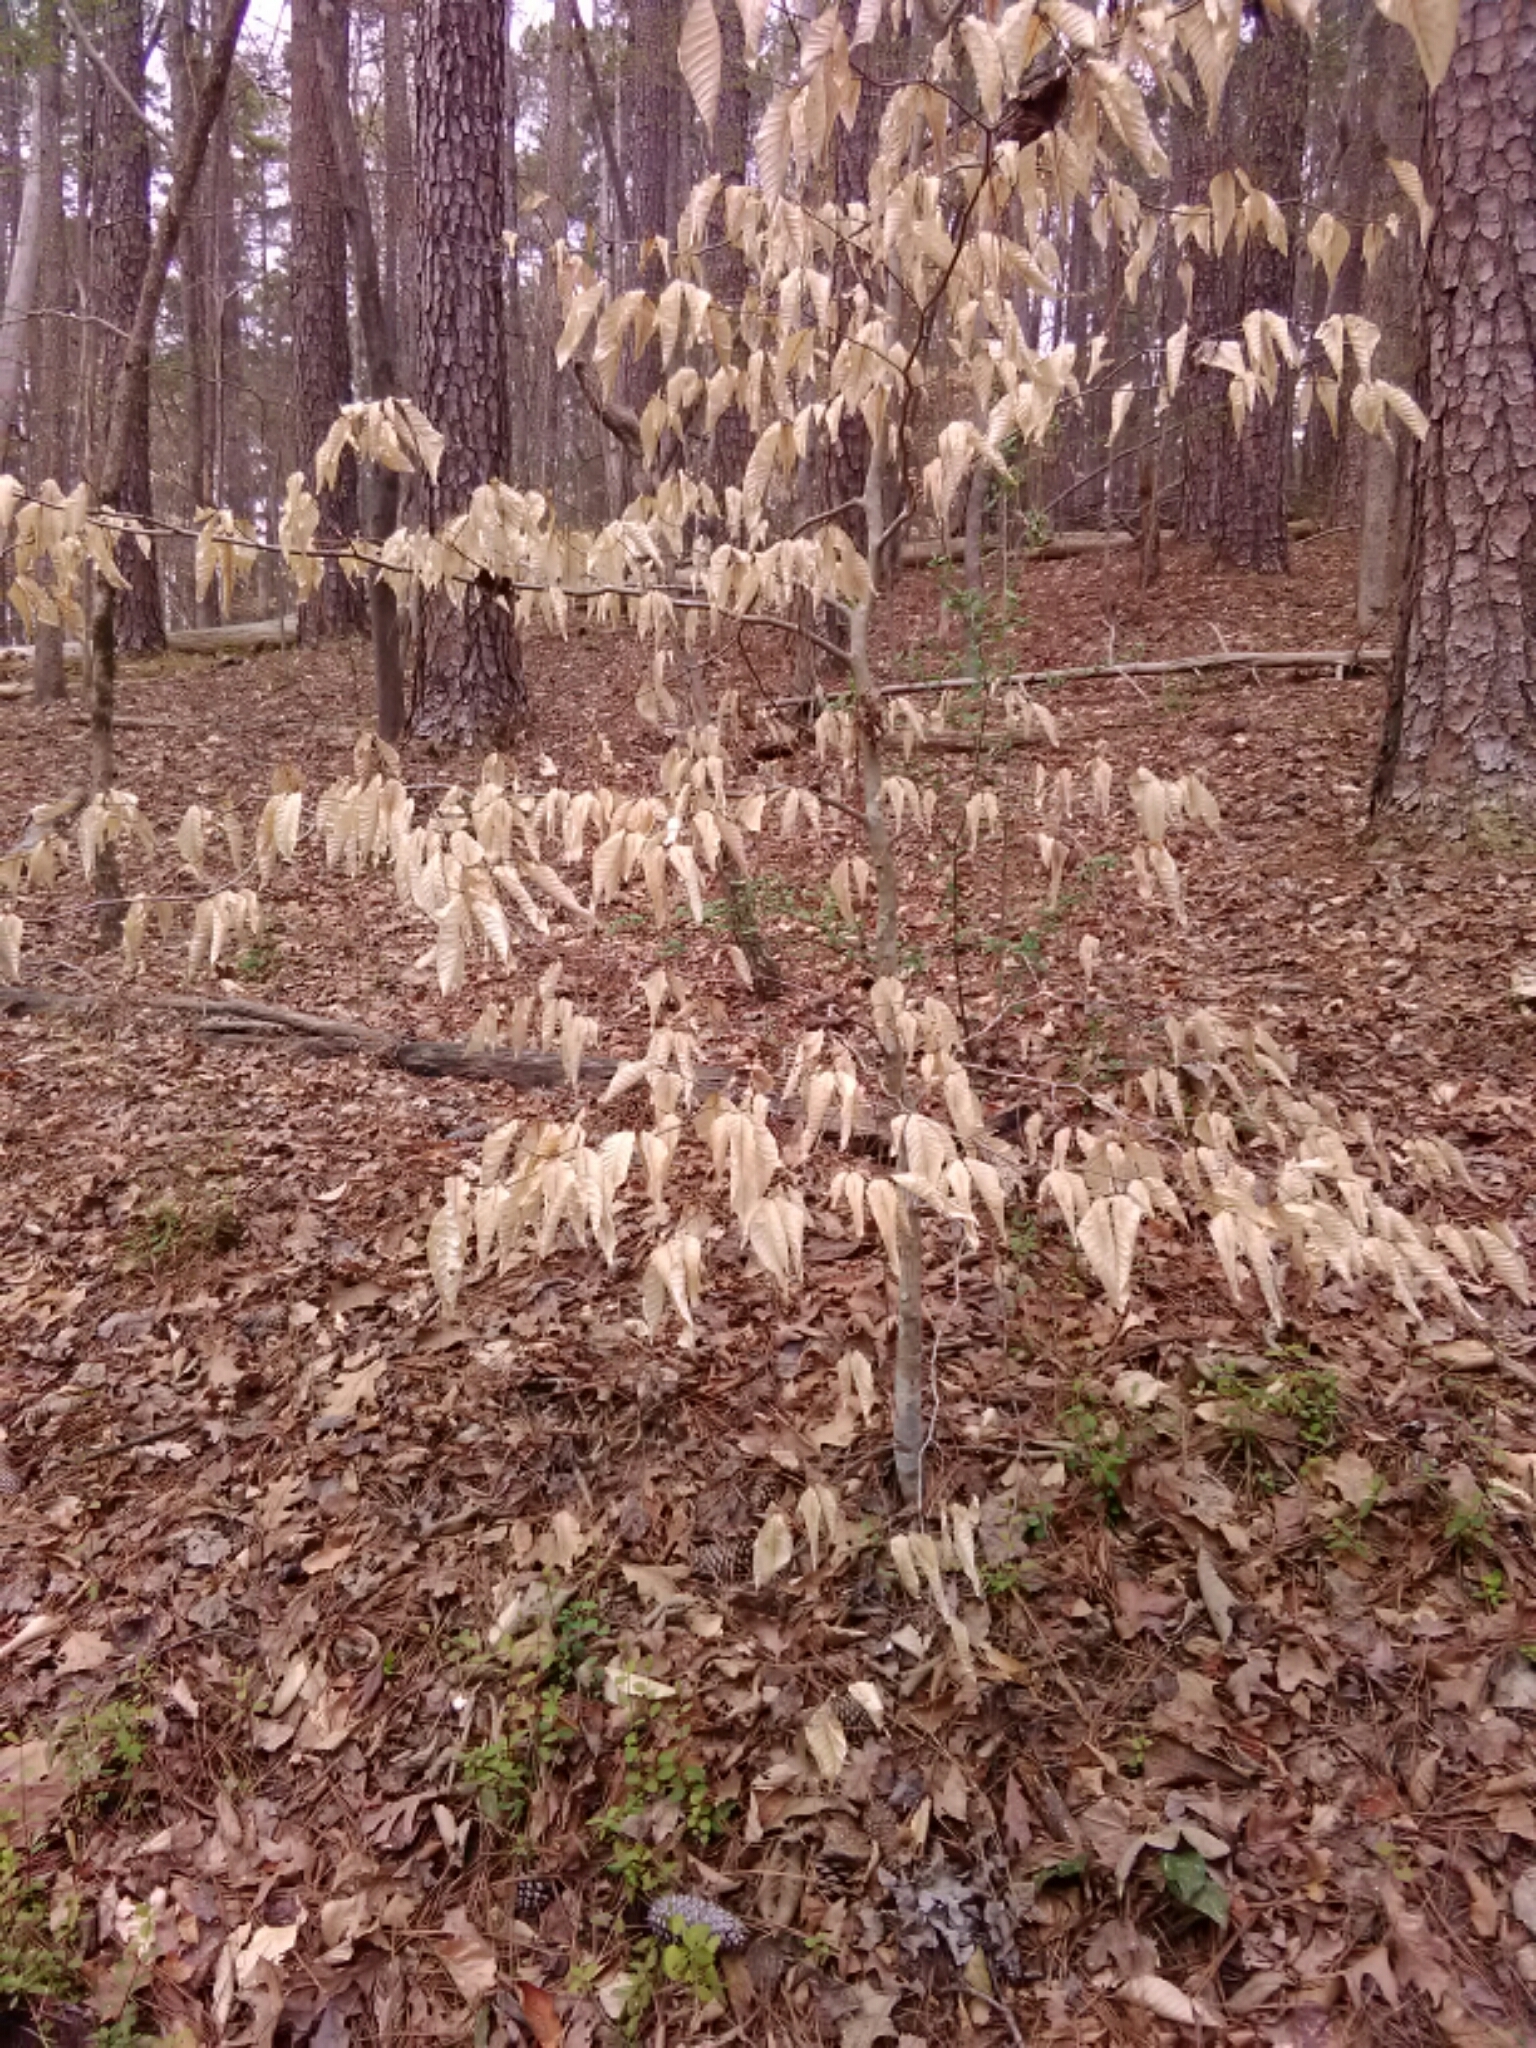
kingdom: Plantae
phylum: Tracheophyta
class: Magnoliopsida
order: Fagales
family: Fagaceae
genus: Fagus
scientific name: Fagus grandifolia
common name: American beech
